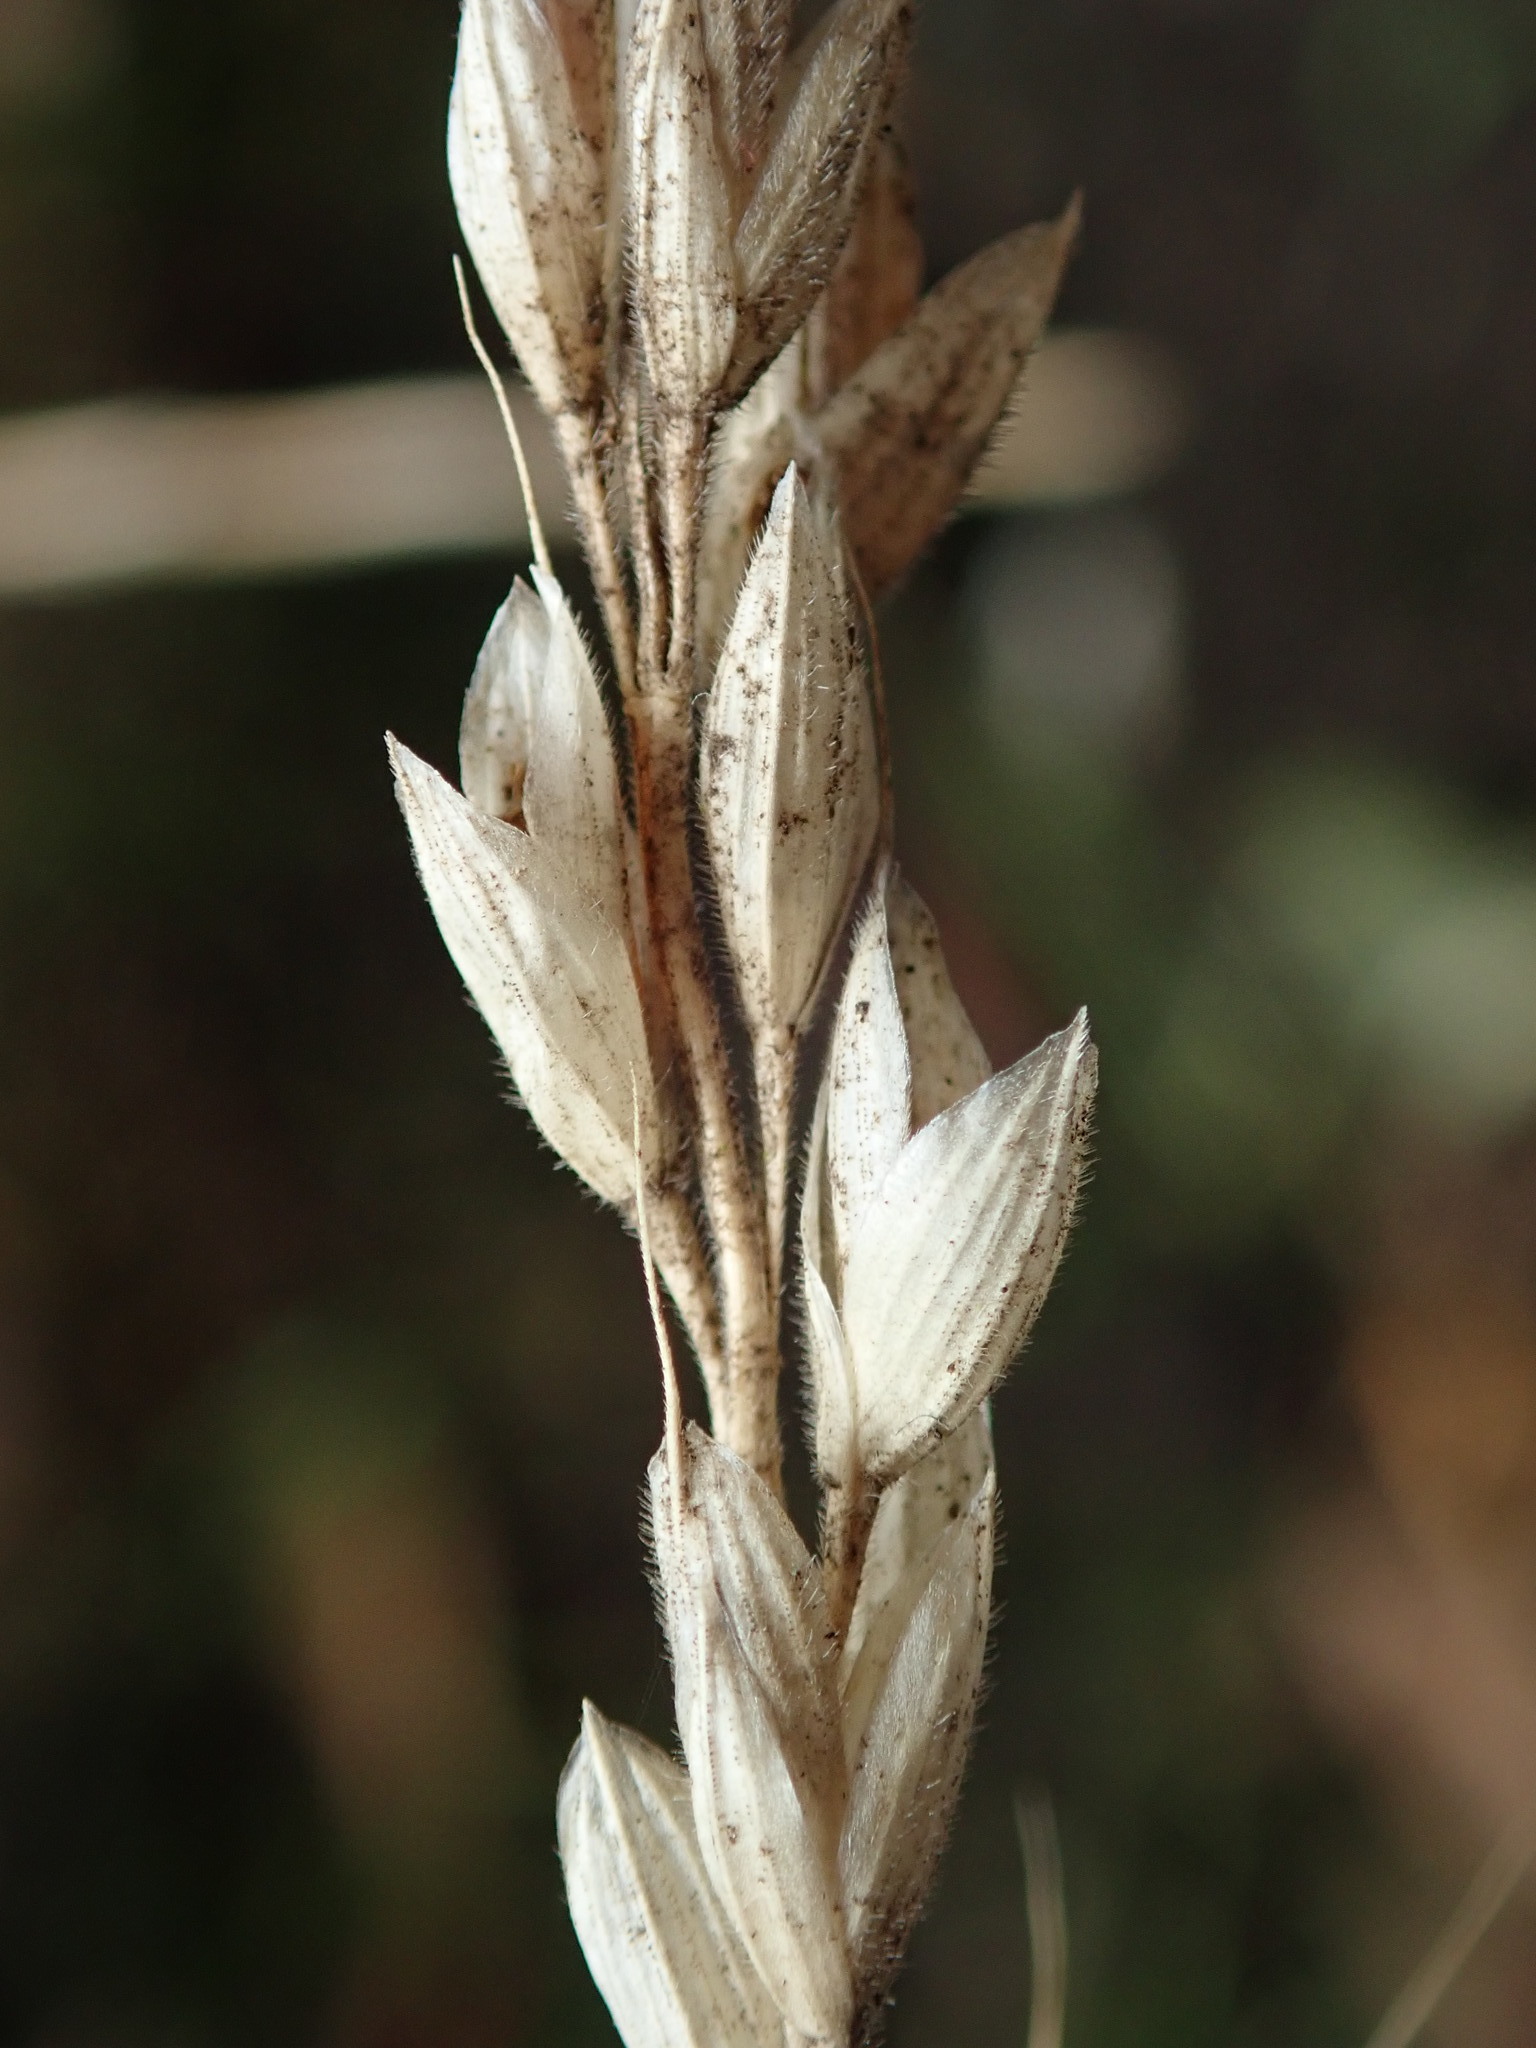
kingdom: Plantae
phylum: Tracheophyta
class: Liliopsida
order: Poales
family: Poaceae
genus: Holcus
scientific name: Holcus lanatus
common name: Yorkshire-fog
